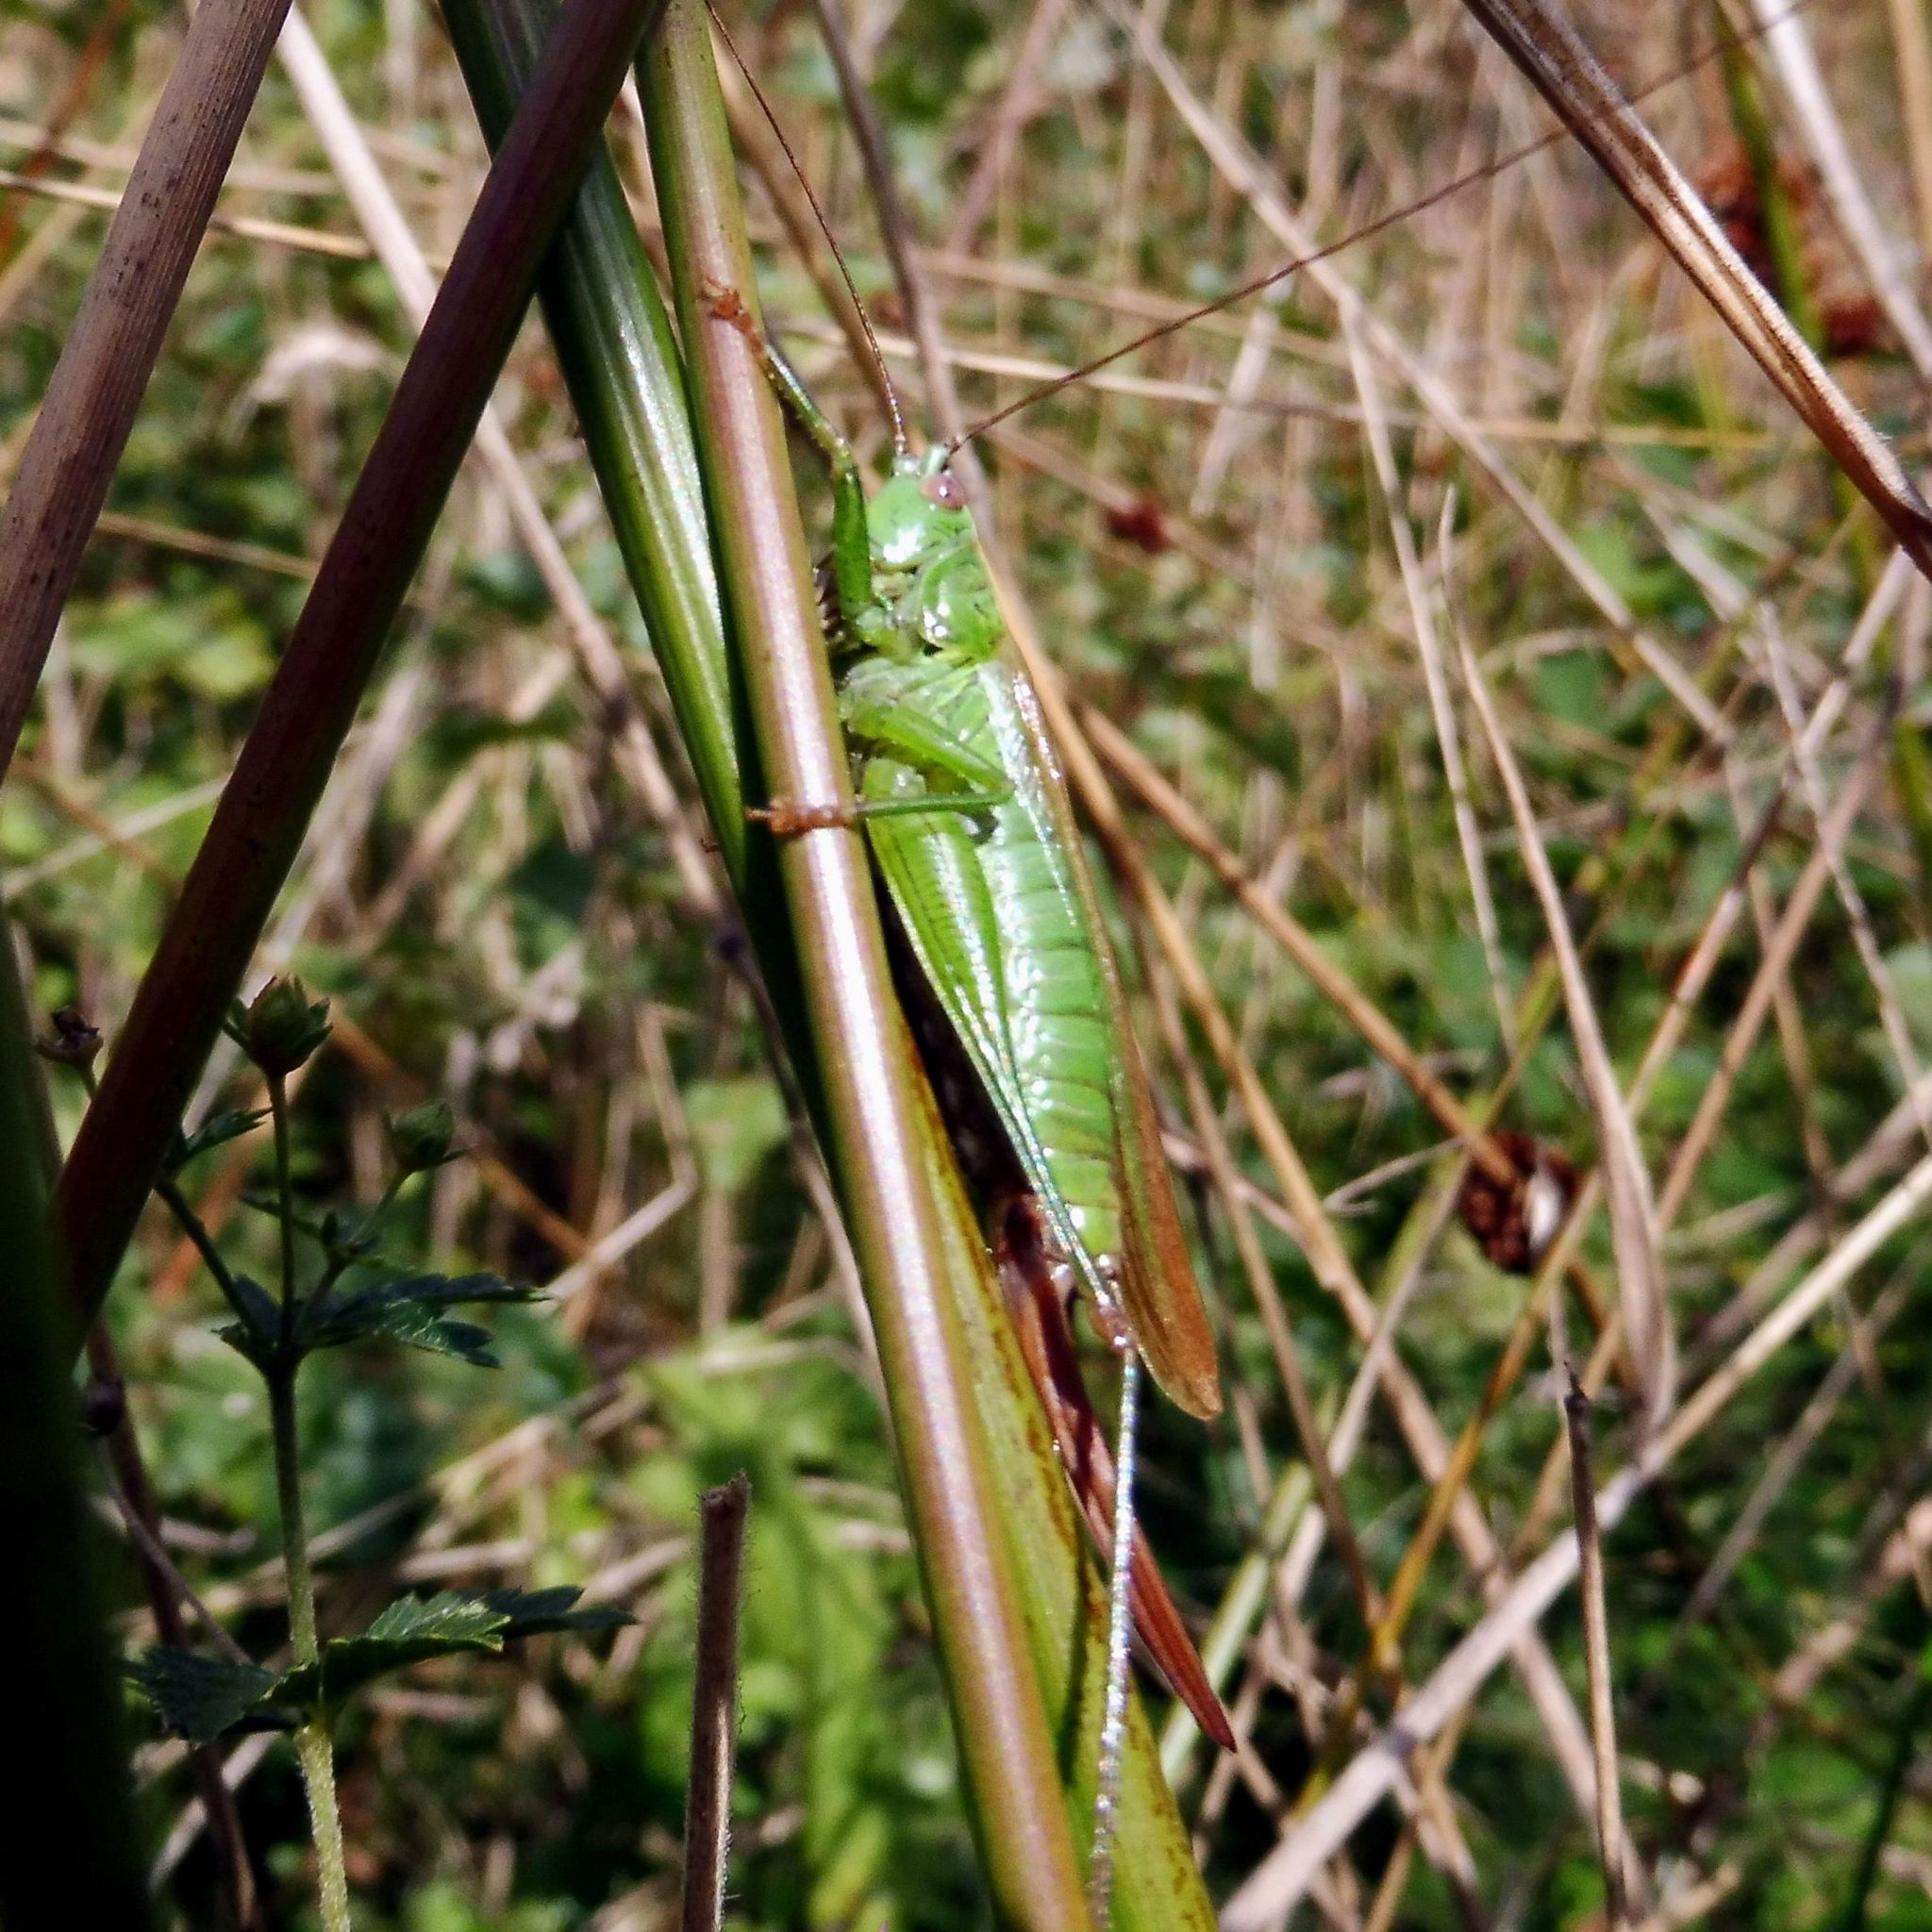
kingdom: Animalia
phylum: Arthropoda
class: Insecta
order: Orthoptera
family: Tettigoniidae
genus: Conocephalus
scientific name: Conocephalus fuscus
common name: Long-winged conehead
